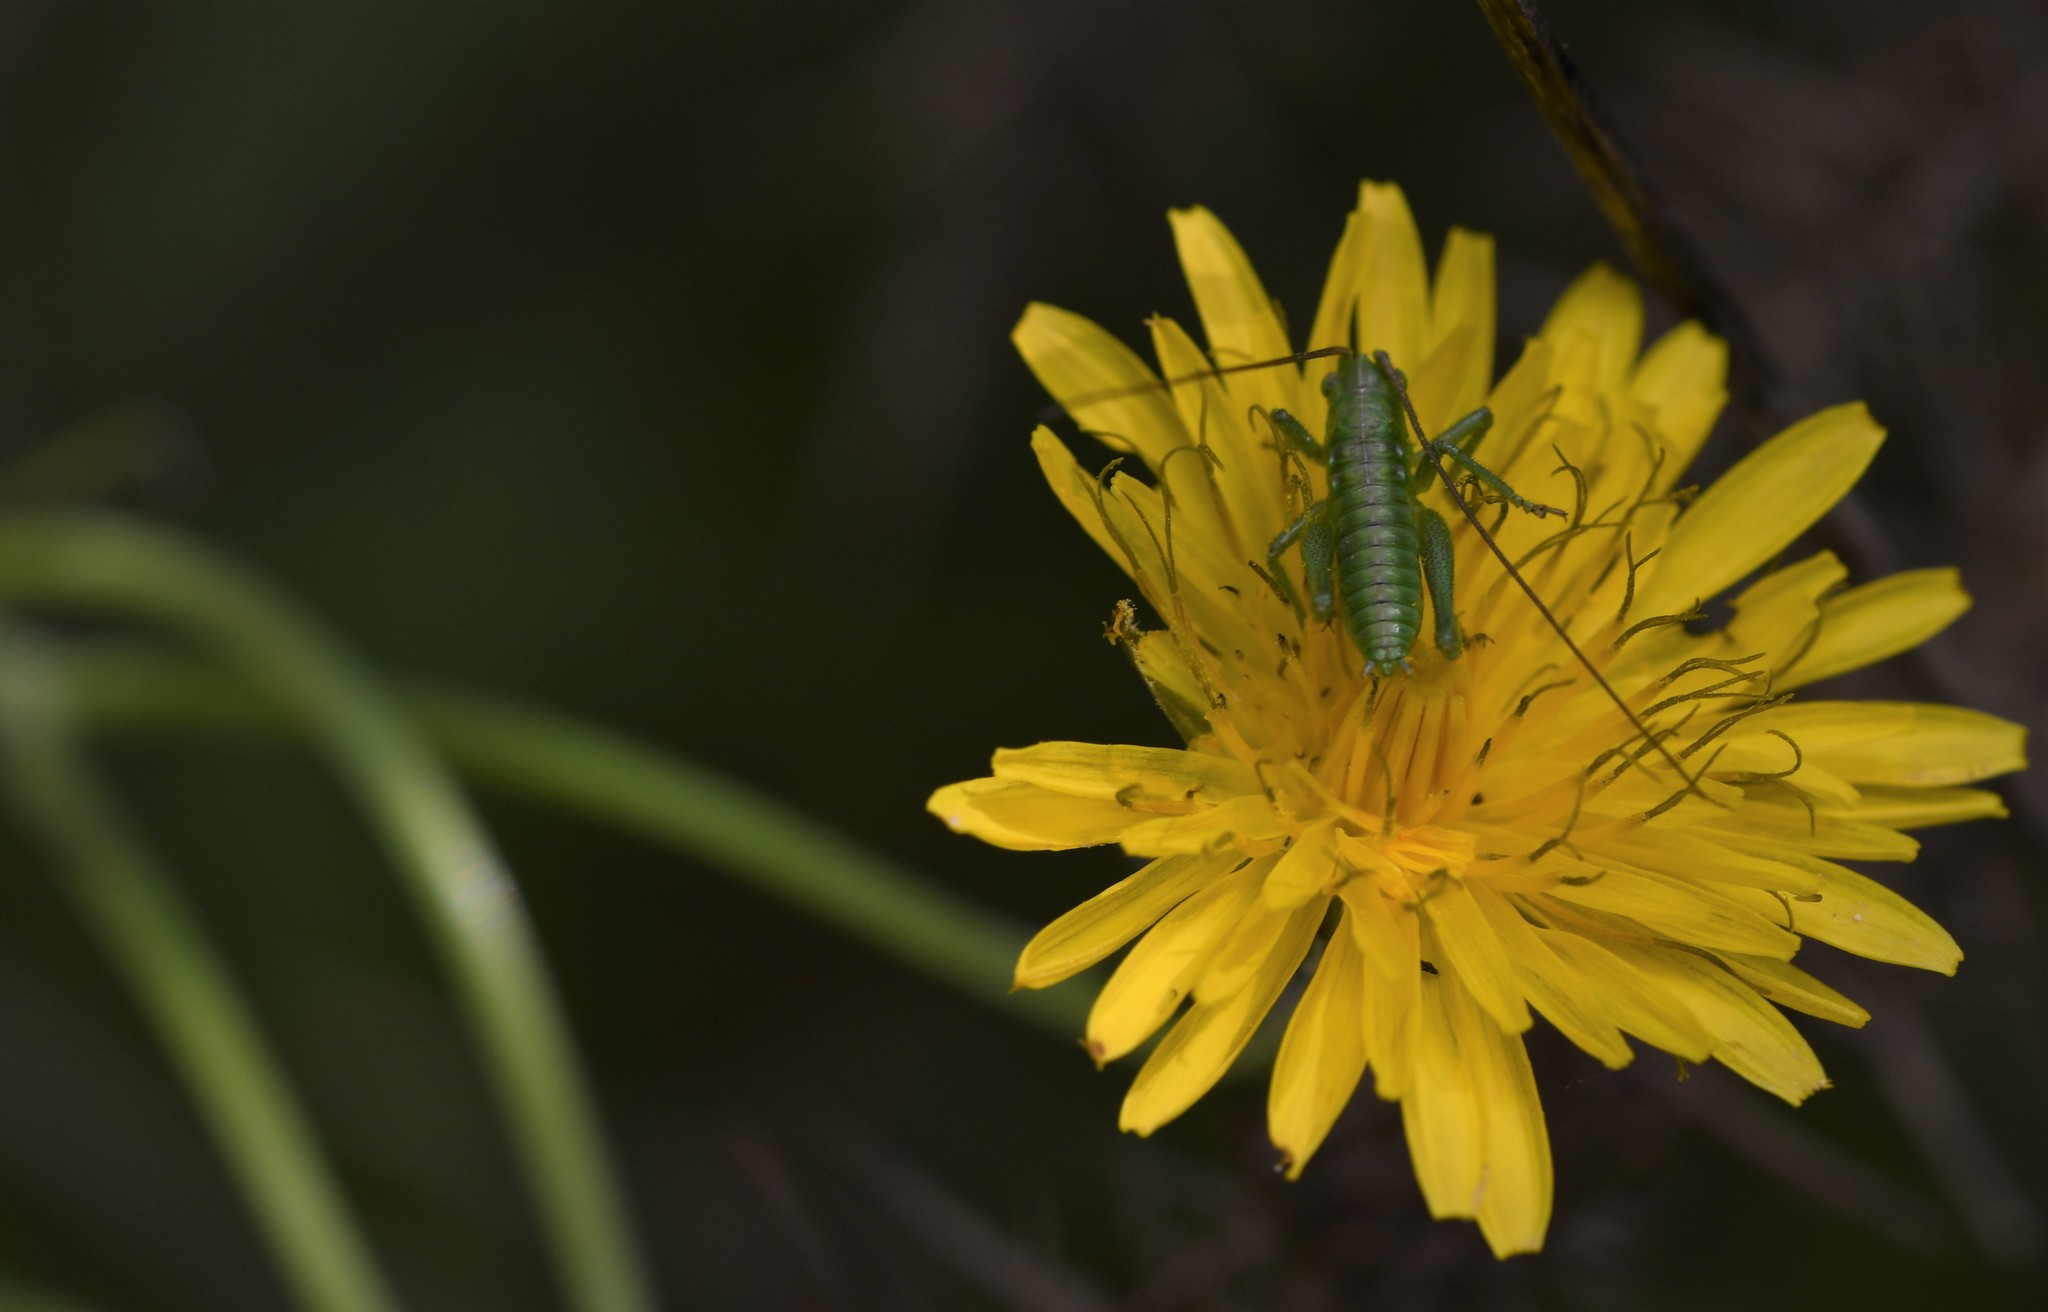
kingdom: Animalia
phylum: Arthropoda
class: Insecta
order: Orthoptera
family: Tettigoniidae
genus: Tettigonia
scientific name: Tettigonia viridissima
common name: Great green bush-cricket
